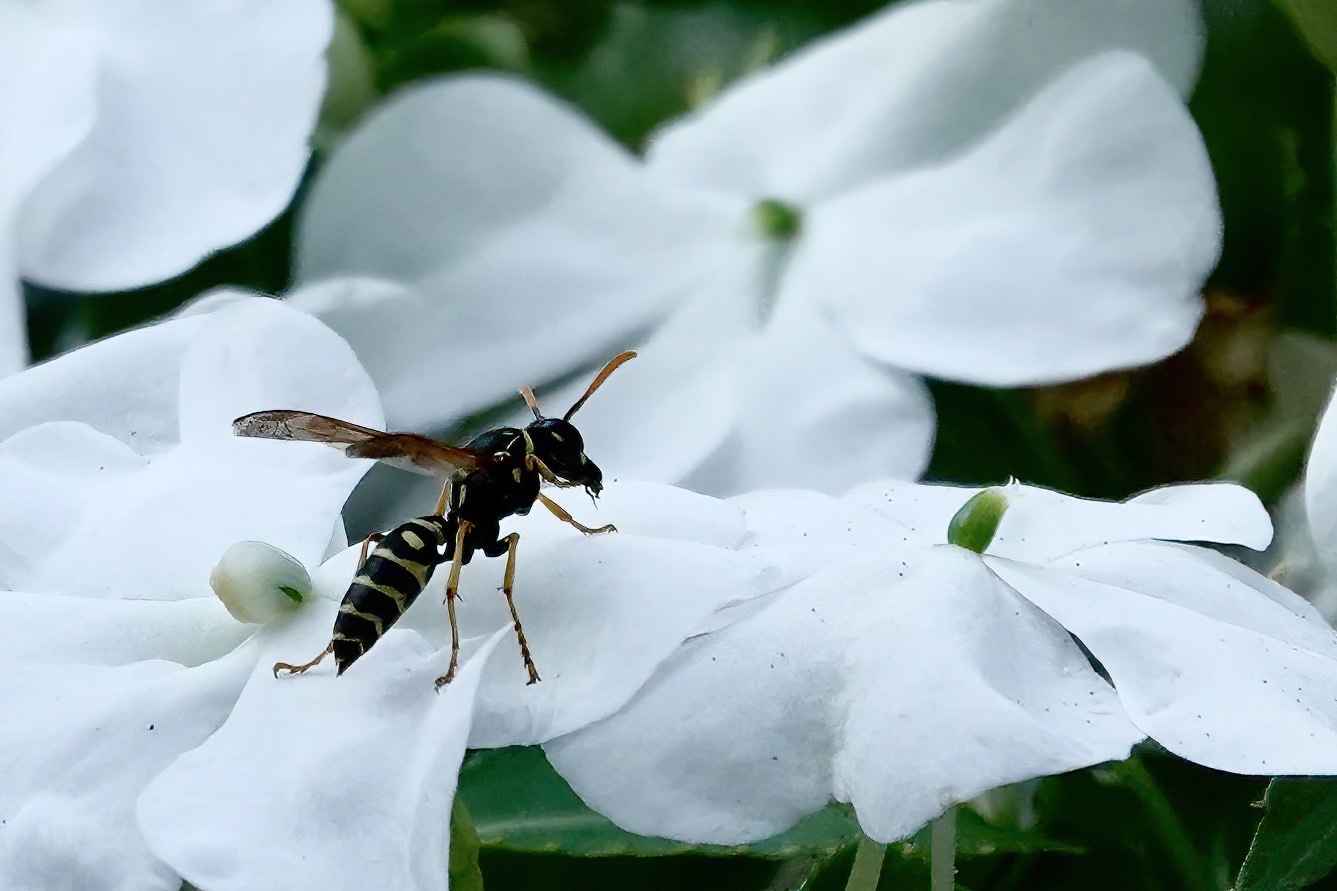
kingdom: Animalia
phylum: Arthropoda
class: Insecta
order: Hymenoptera
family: Eumenidae
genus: Polistes
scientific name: Polistes dominula
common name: Paper wasp
